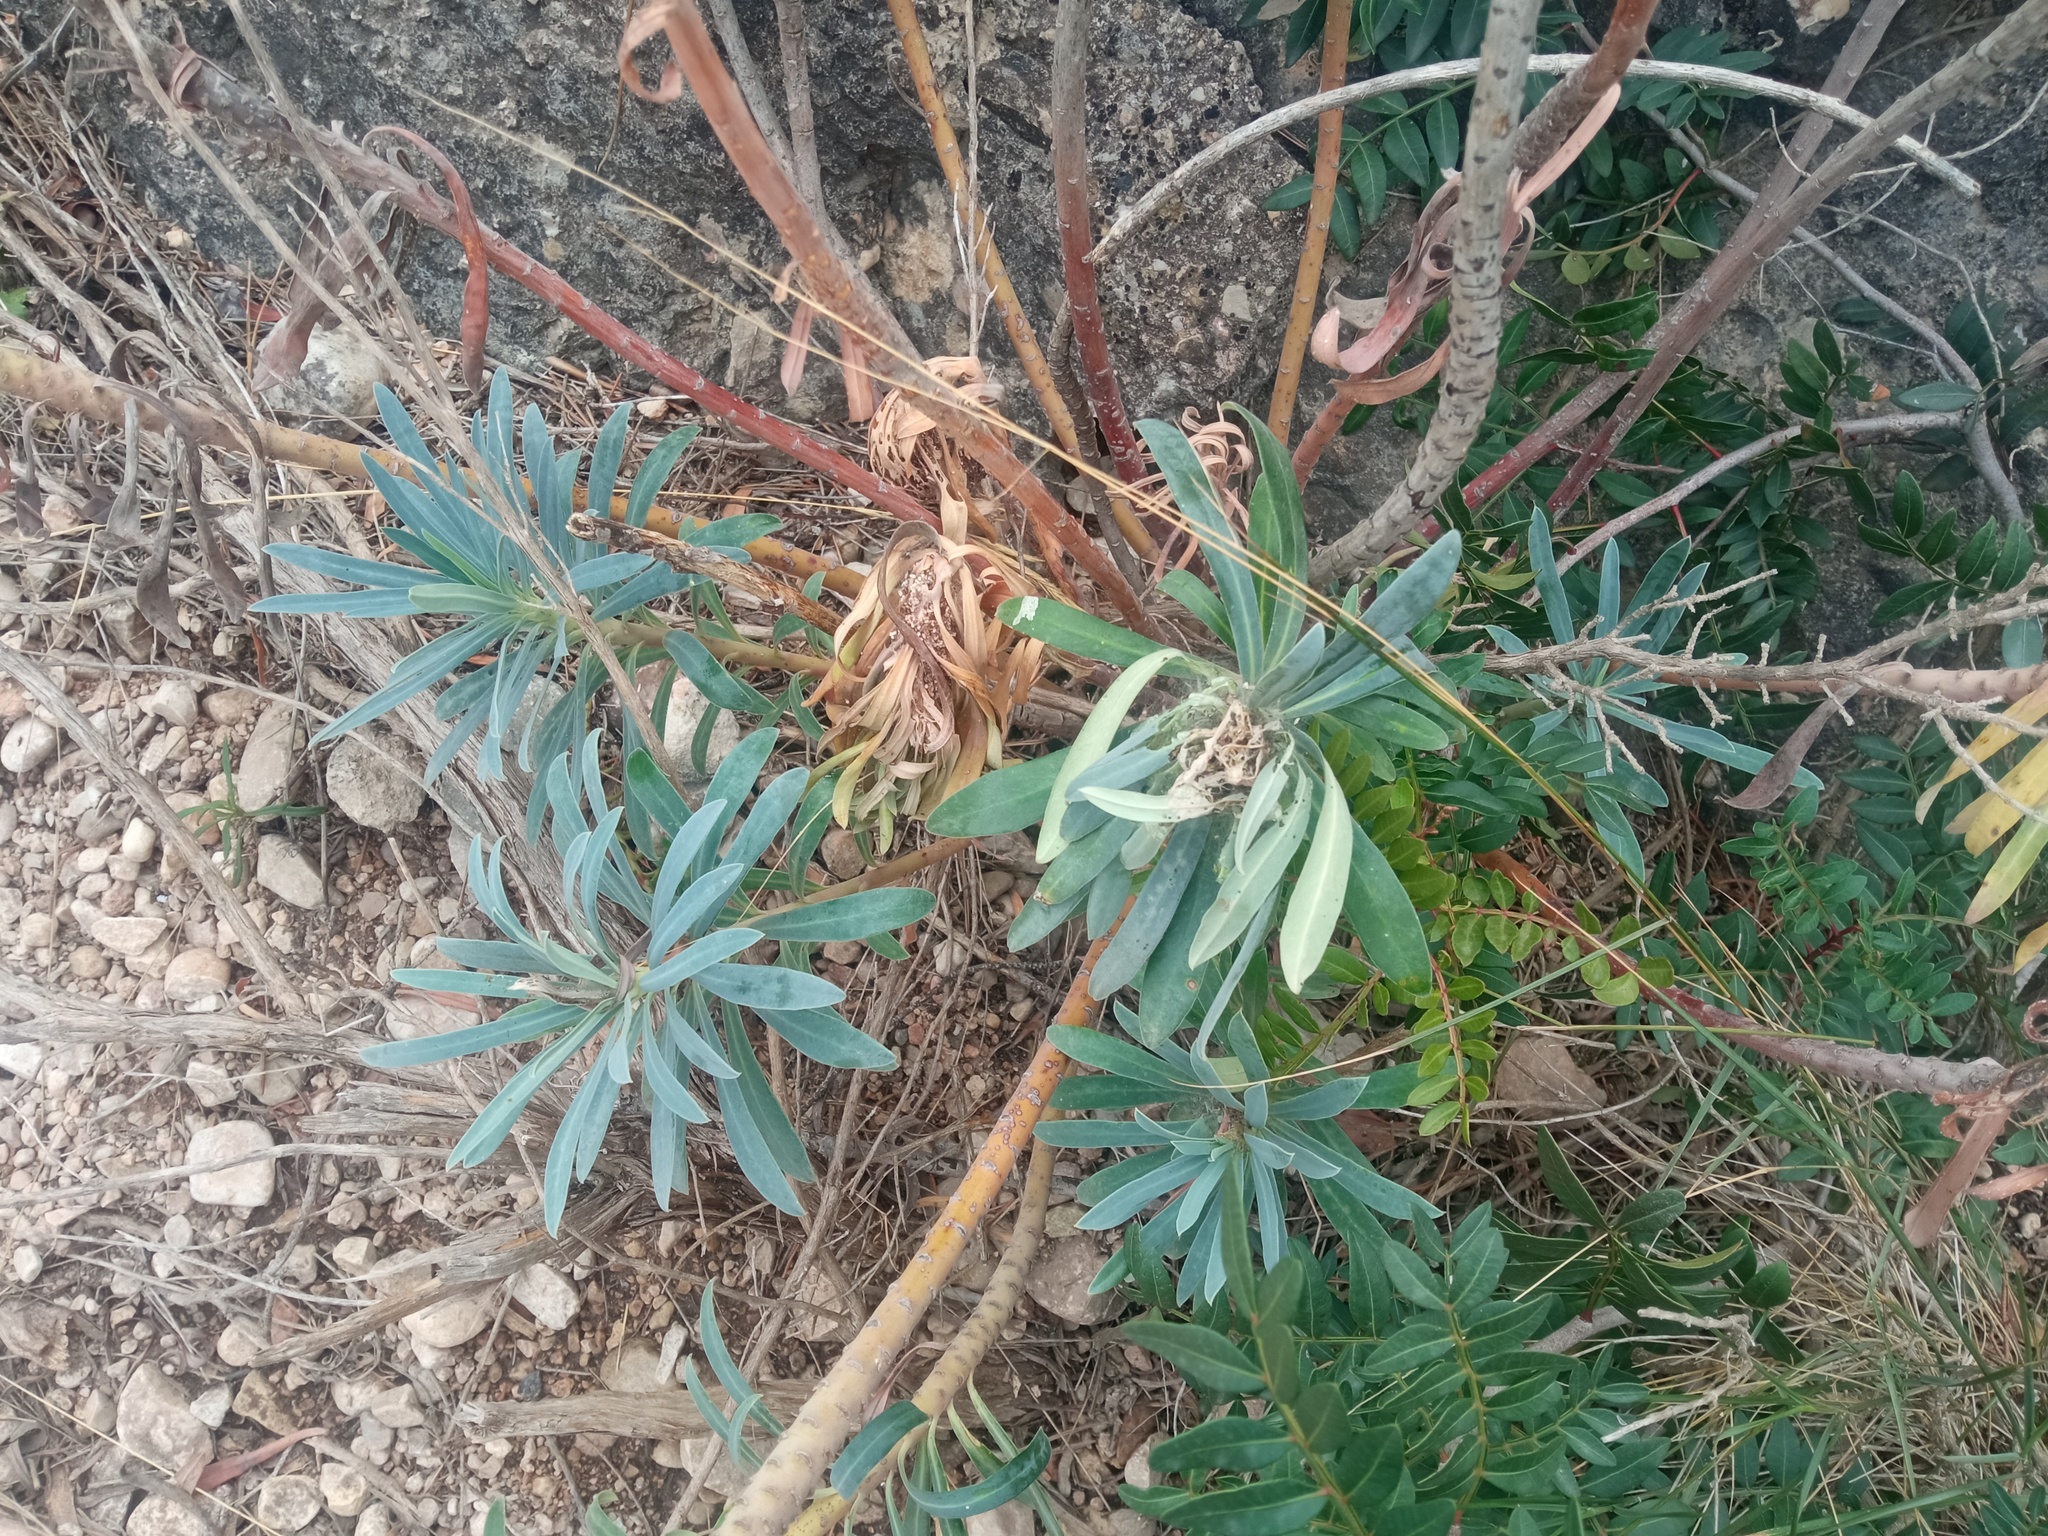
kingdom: Plantae
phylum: Tracheophyta
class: Magnoliopsida
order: Malpighiales
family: Euphorbiaceae
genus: Euphorbia
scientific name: Euphorbia characias
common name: Mediterranean spurge
